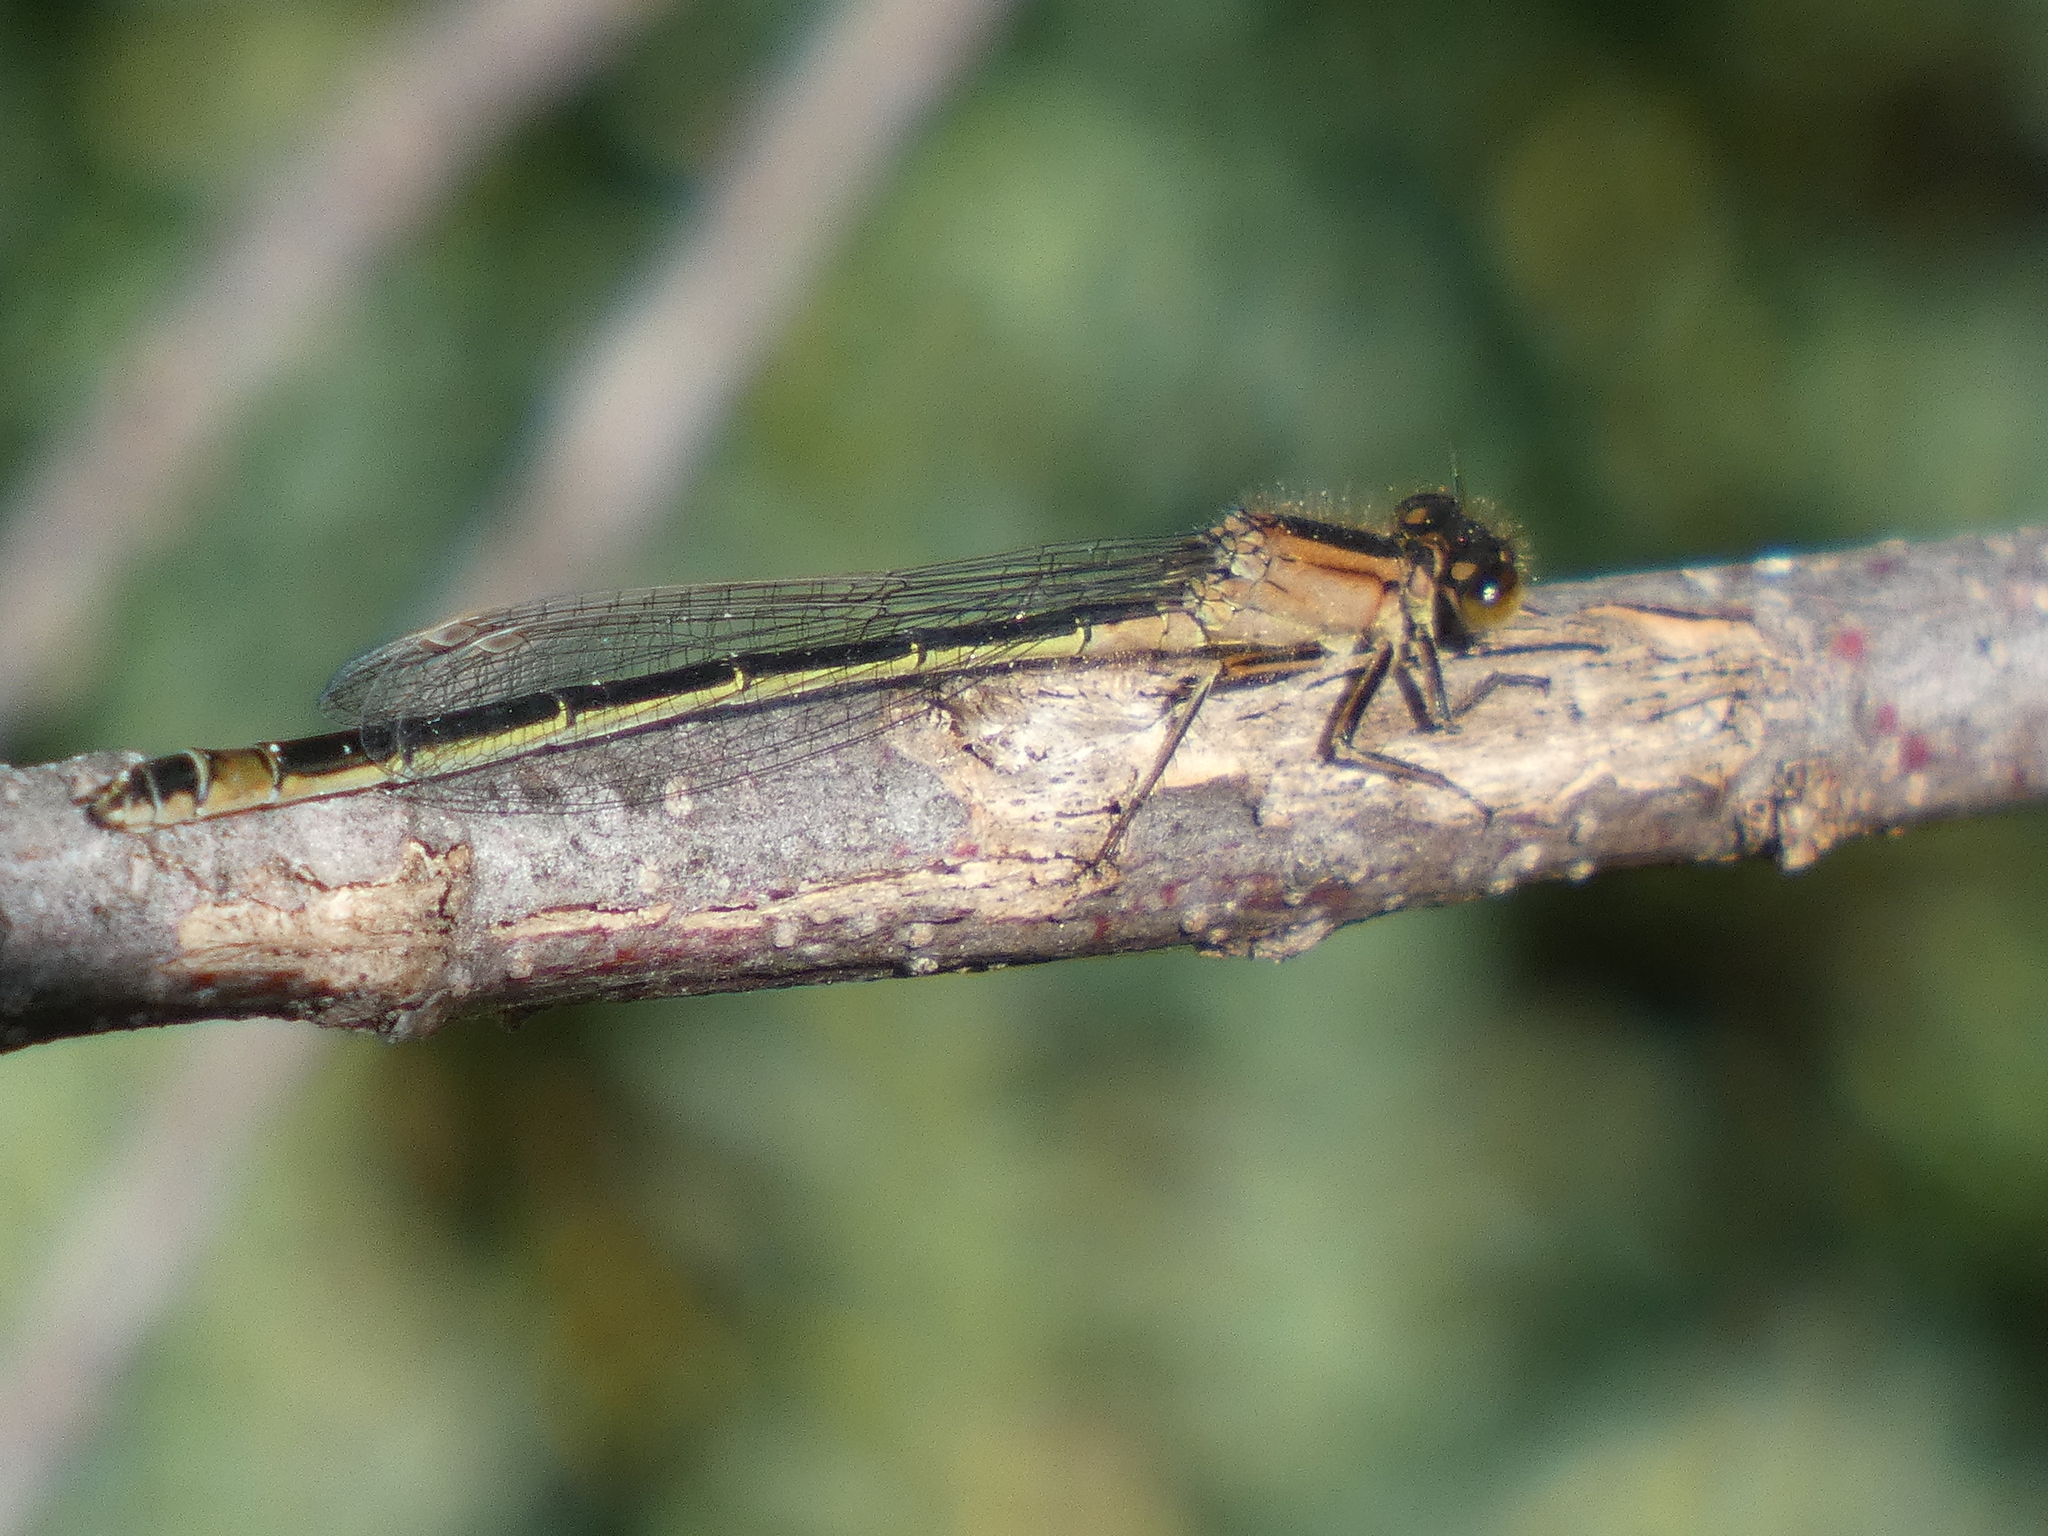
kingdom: Animalia
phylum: Arthropoda
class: Insecta
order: Odonata
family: Coenagrionidae
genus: Ischnura
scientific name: Ischnura elegans
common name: Blue-tailed damselfly
